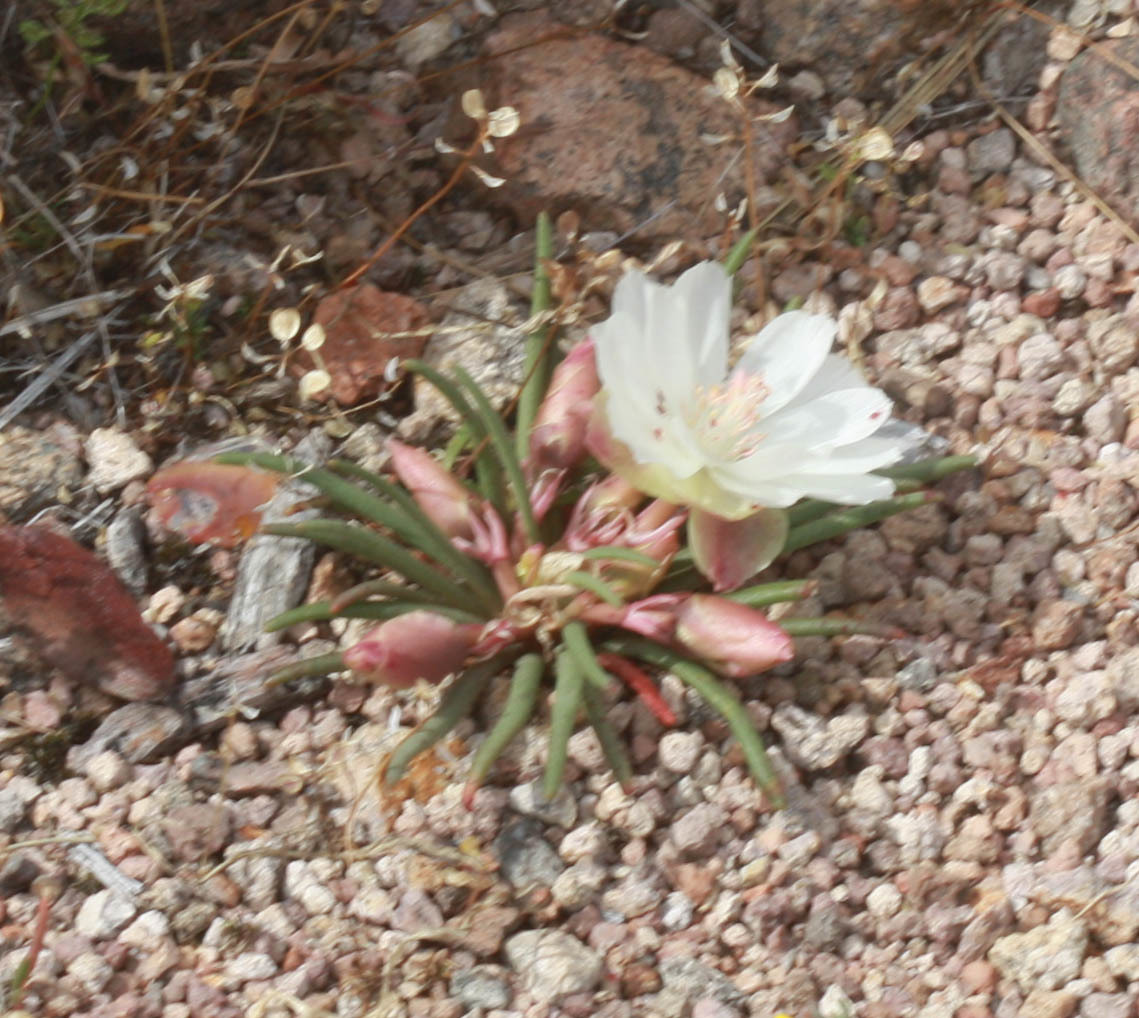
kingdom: Plantae
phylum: Tracheophyta
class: Magnoliopsida
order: Caryophyllales
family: Montiaceae
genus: Lewisia
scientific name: Lewisia rediviva
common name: Bitter-root
